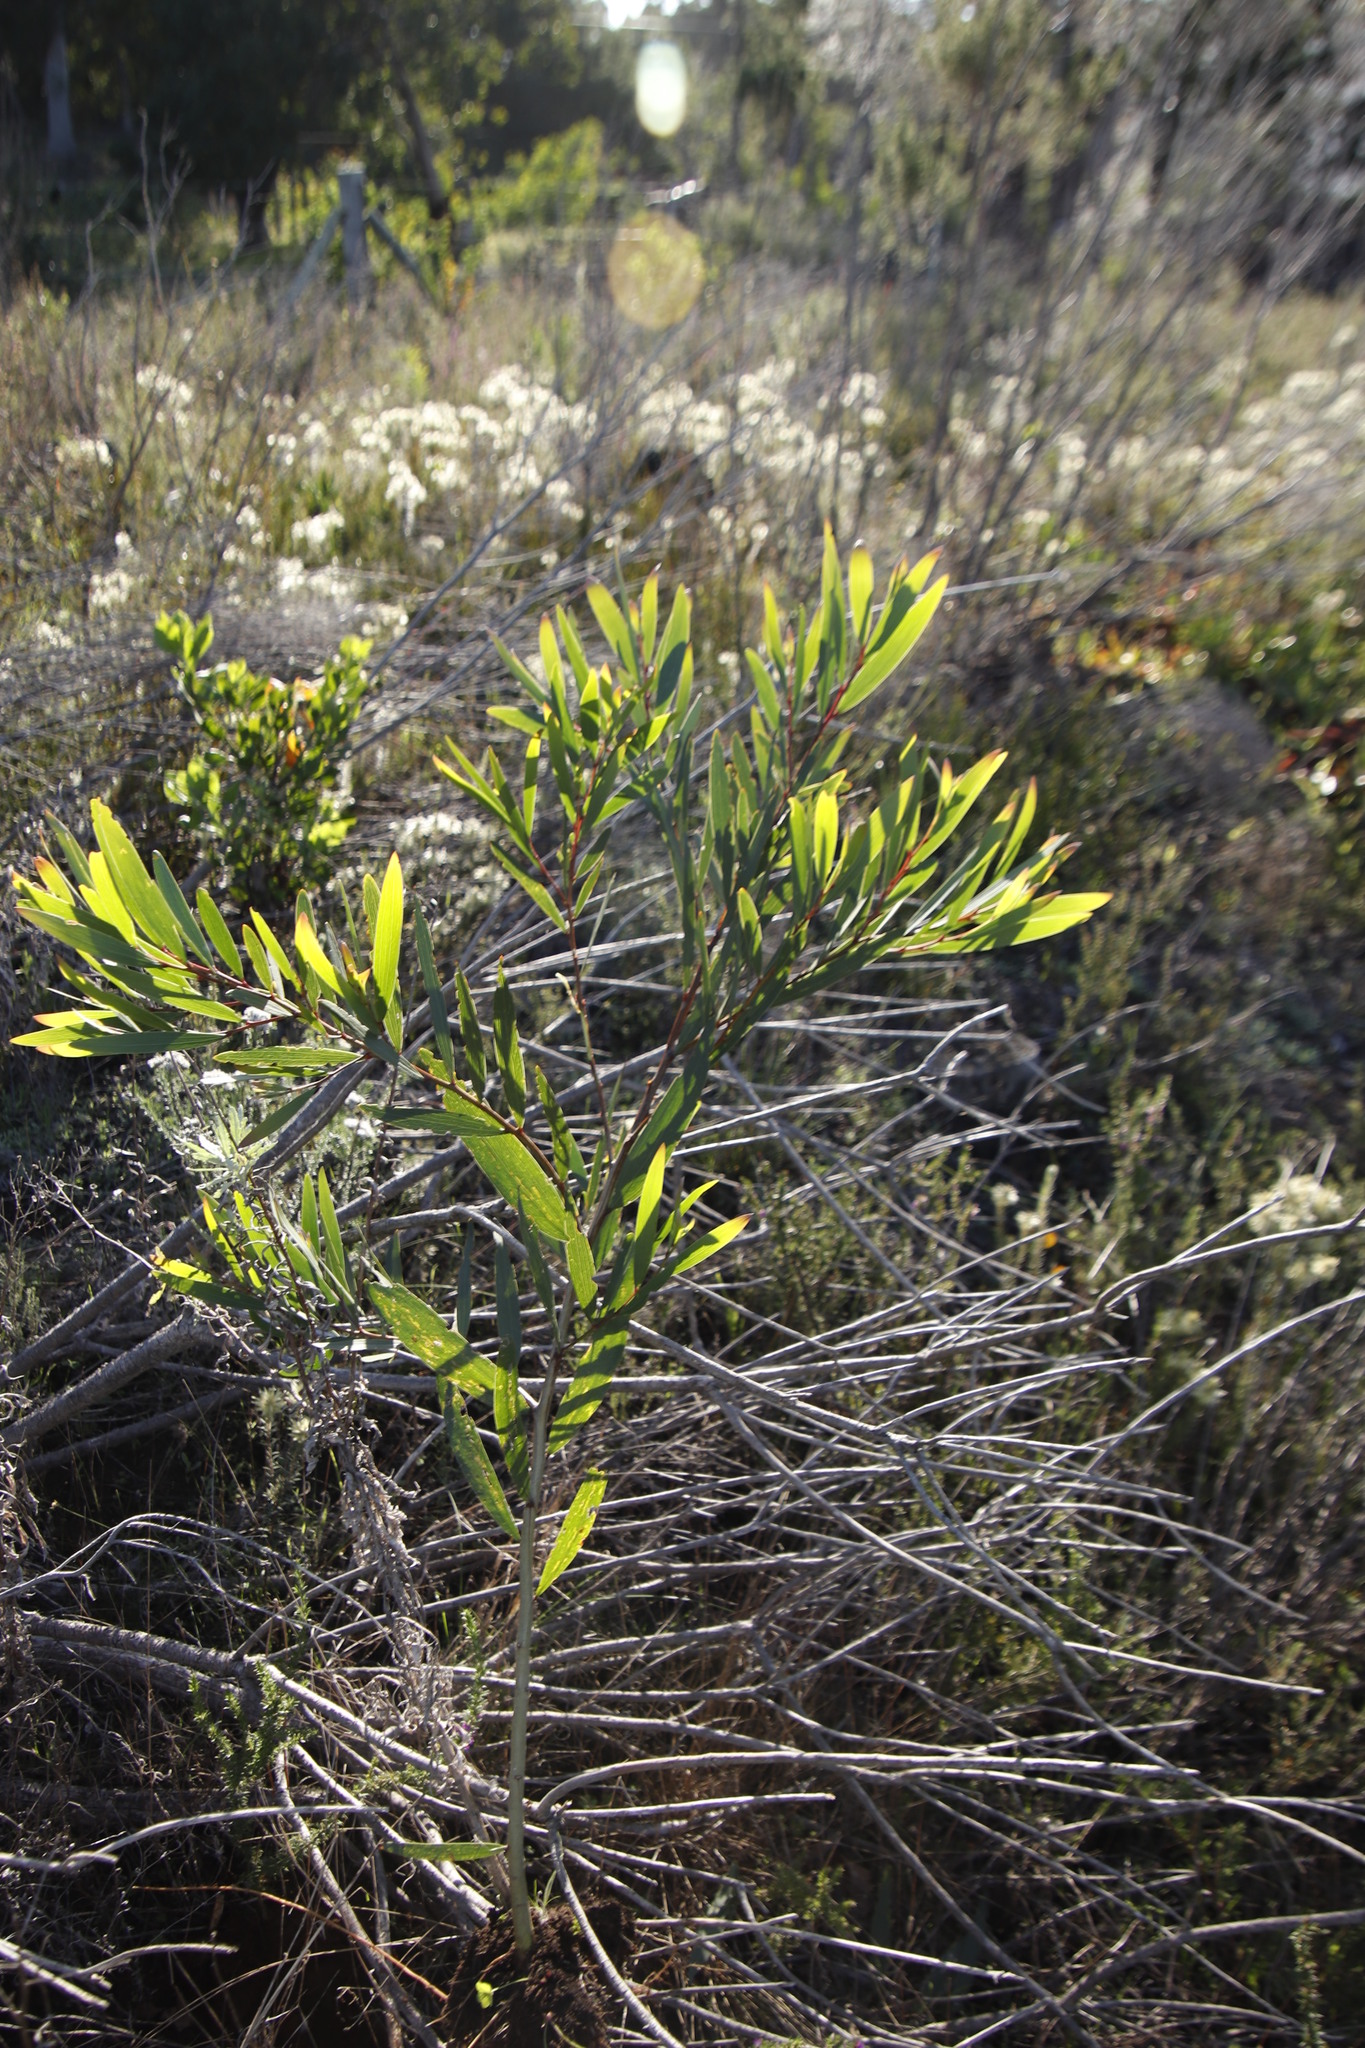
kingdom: Plantae
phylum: Tracheophyta
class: Magnoliopsida
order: Fabales
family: Fabaceae
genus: Acacia
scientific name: Acacia longifolia
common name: Sydney golden wattle
